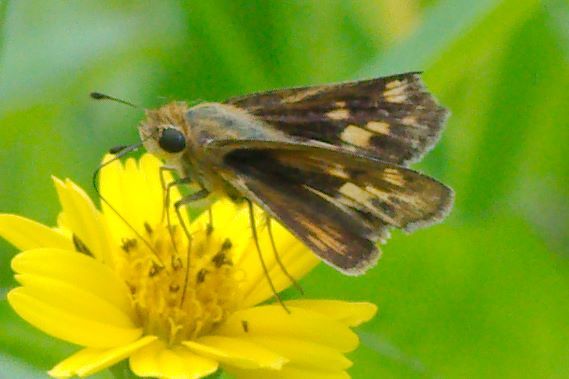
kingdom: Animalia
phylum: Arthropoda
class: Insecta
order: Lepidoptera
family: Hesperiidae
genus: Hylephila
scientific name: Hylephila phyleus
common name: Fiery skipper
